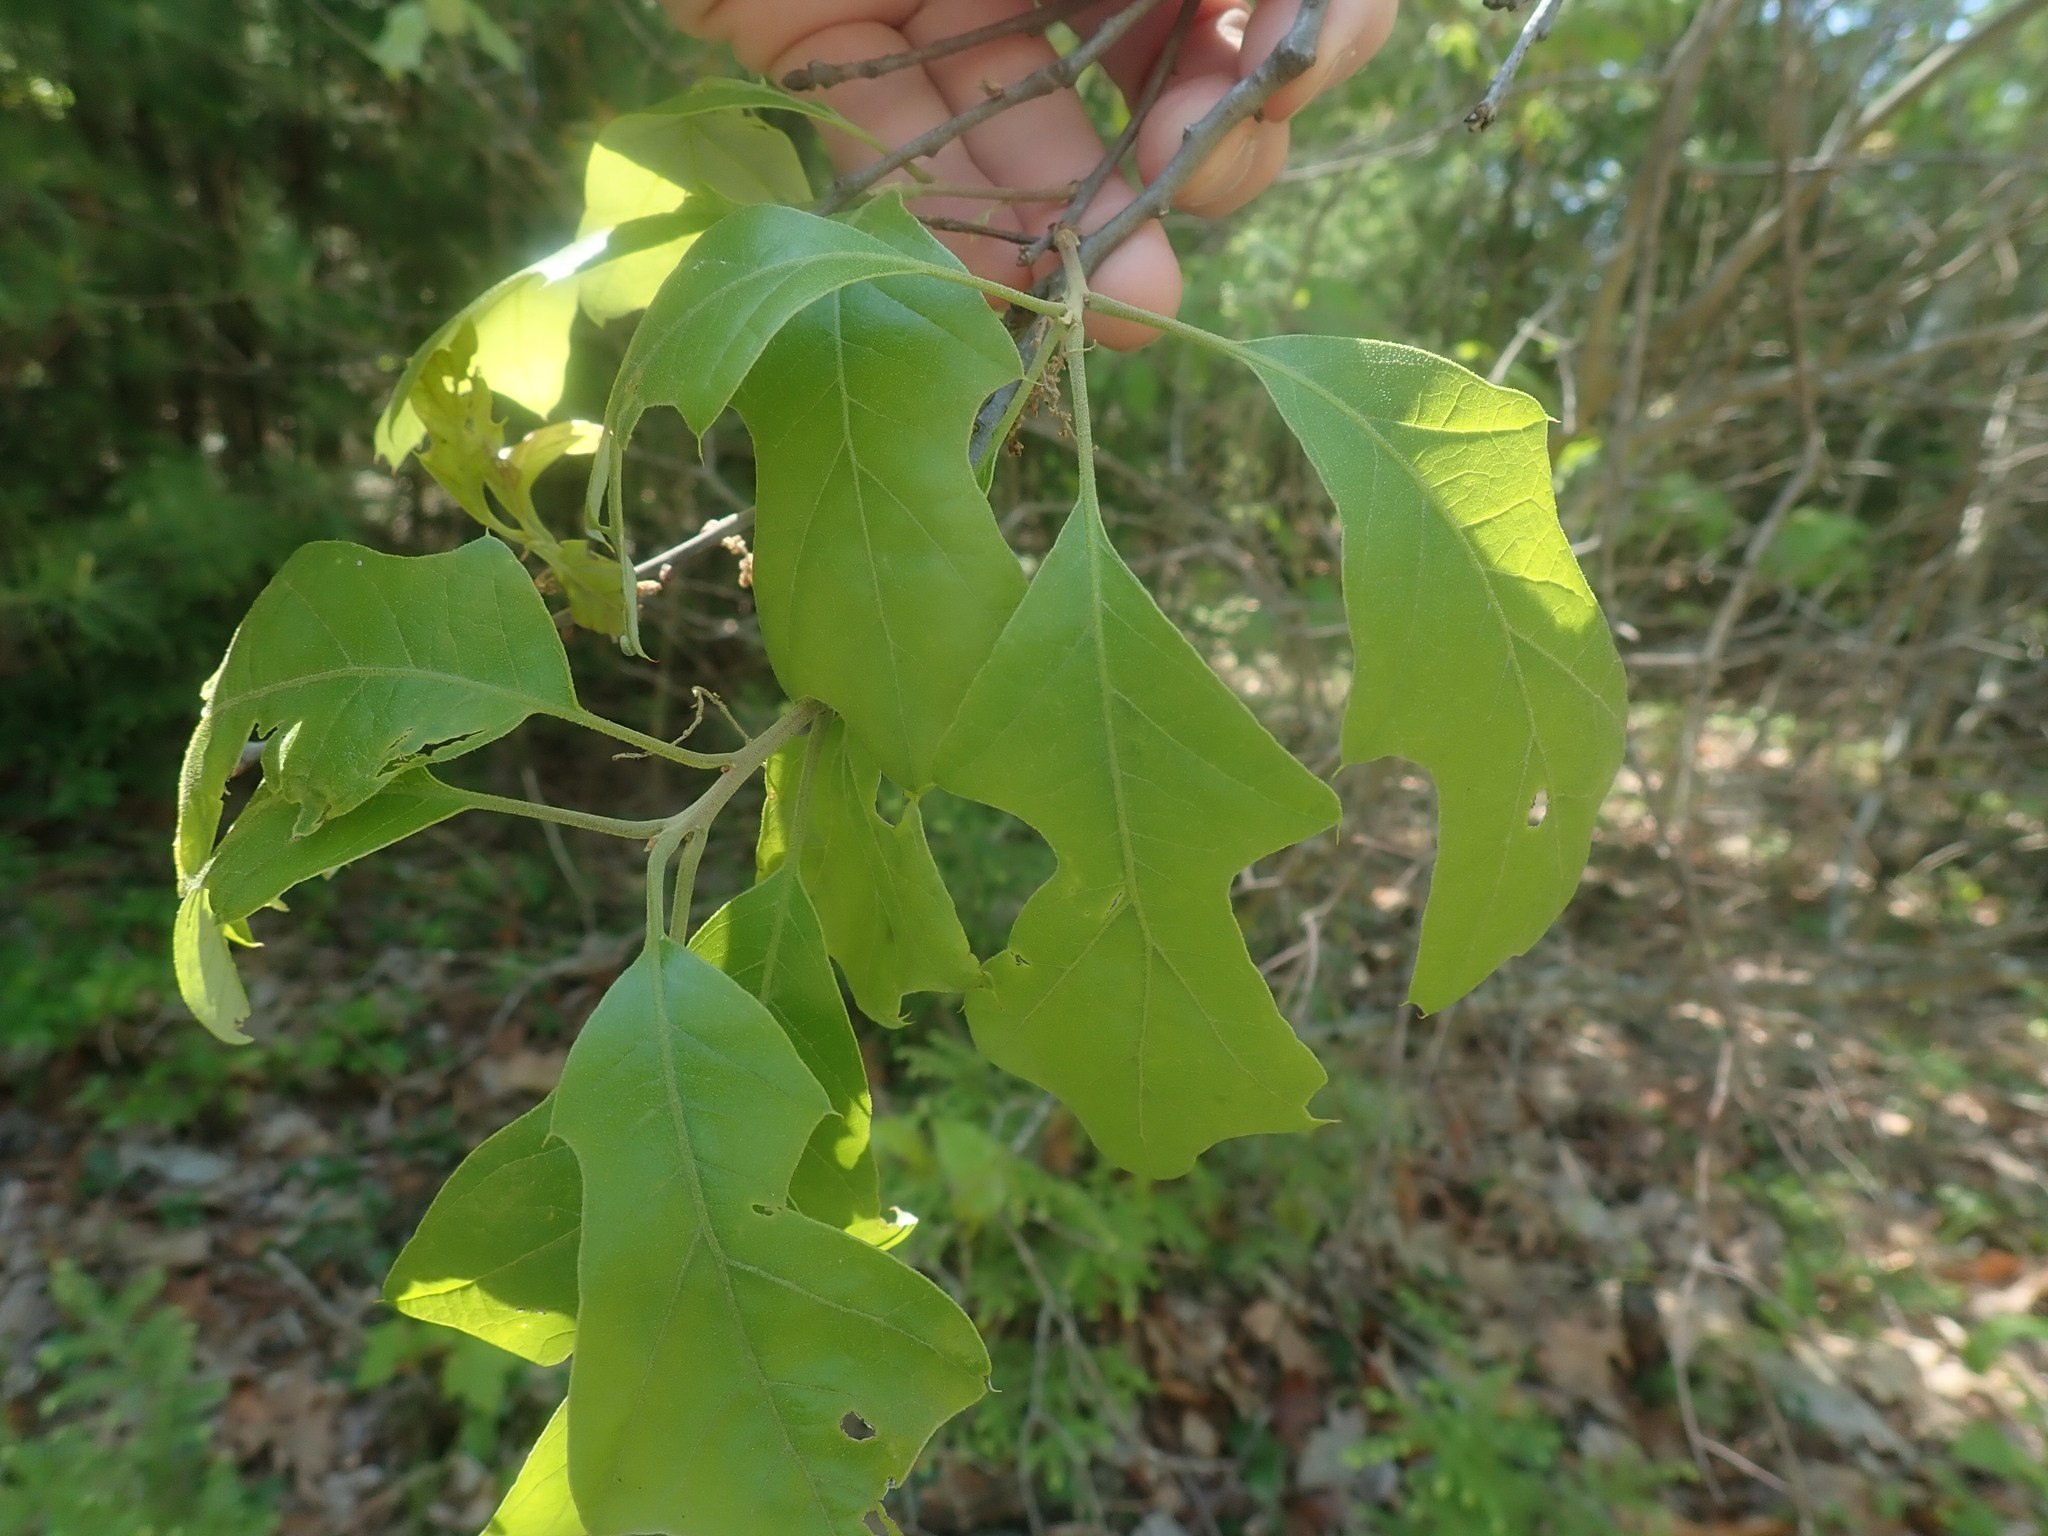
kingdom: Plantae
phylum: Tracheophyta
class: Magnoliopsida
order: Fagales
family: Fagaceae
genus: Quercus
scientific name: Quercus ilicifolia
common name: Bear oak
